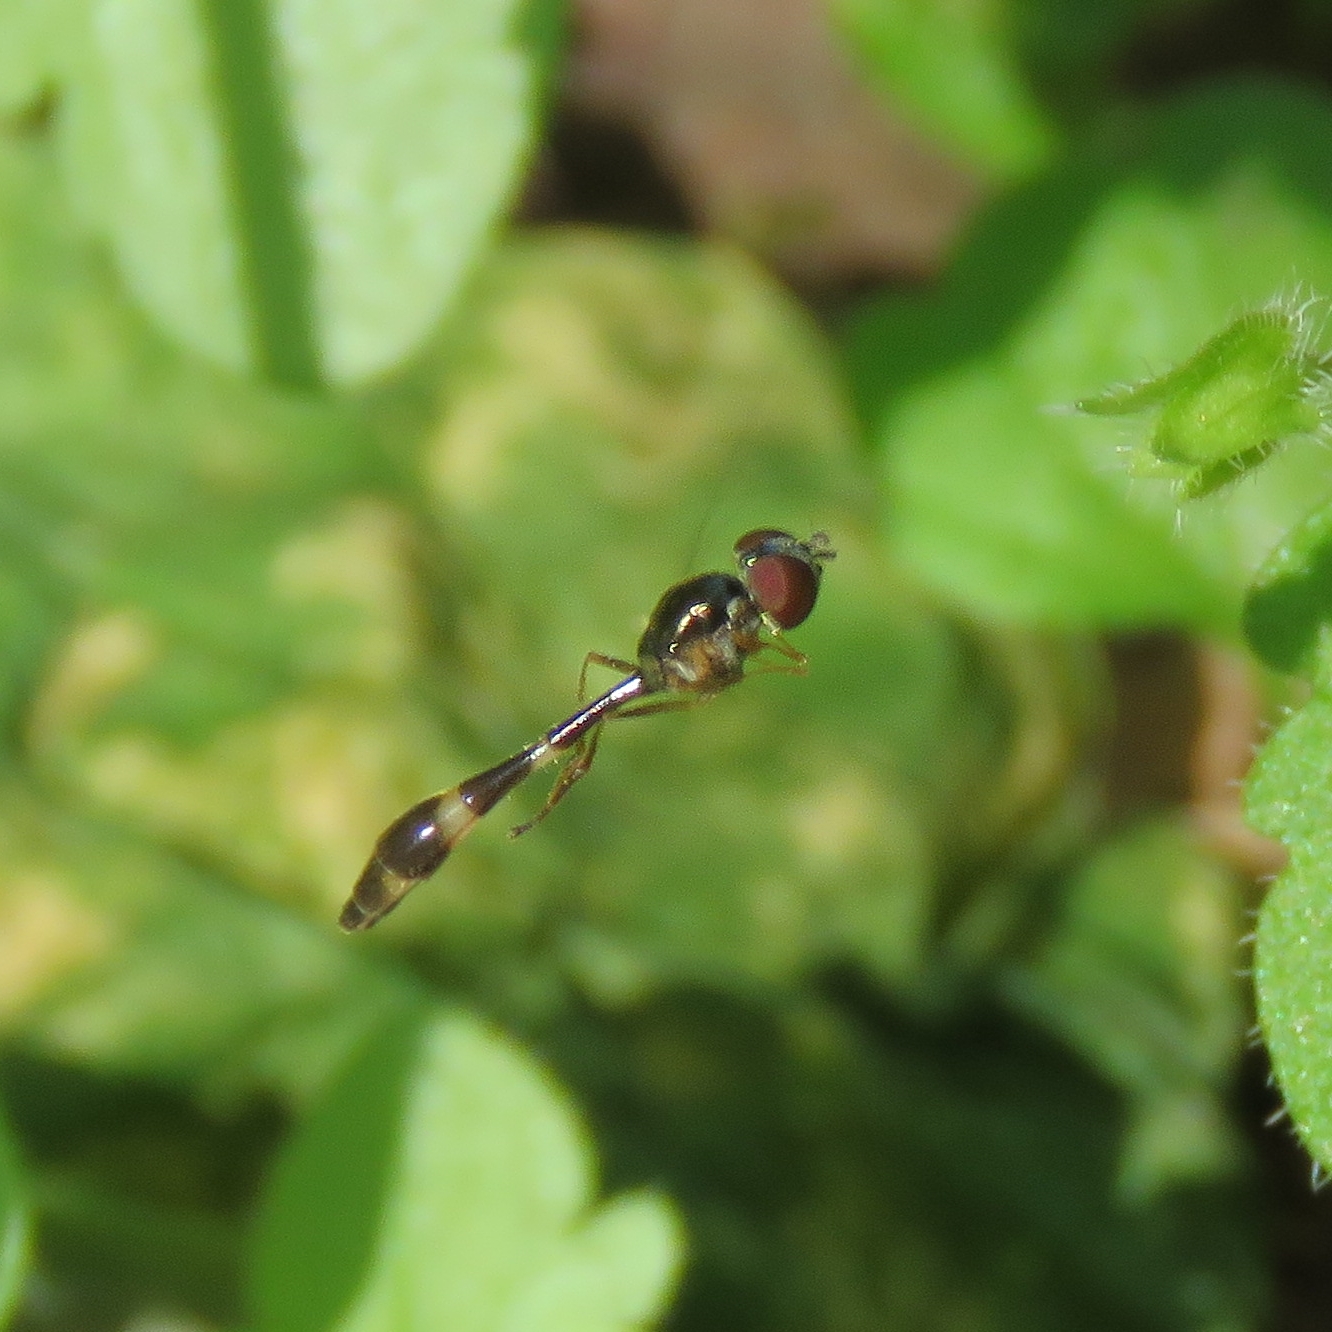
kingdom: Animalia
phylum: Arthropoda
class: Insecta
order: Diptera
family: Syrphidae
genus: Baccha
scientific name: Baccha elongata
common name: Common dainty
